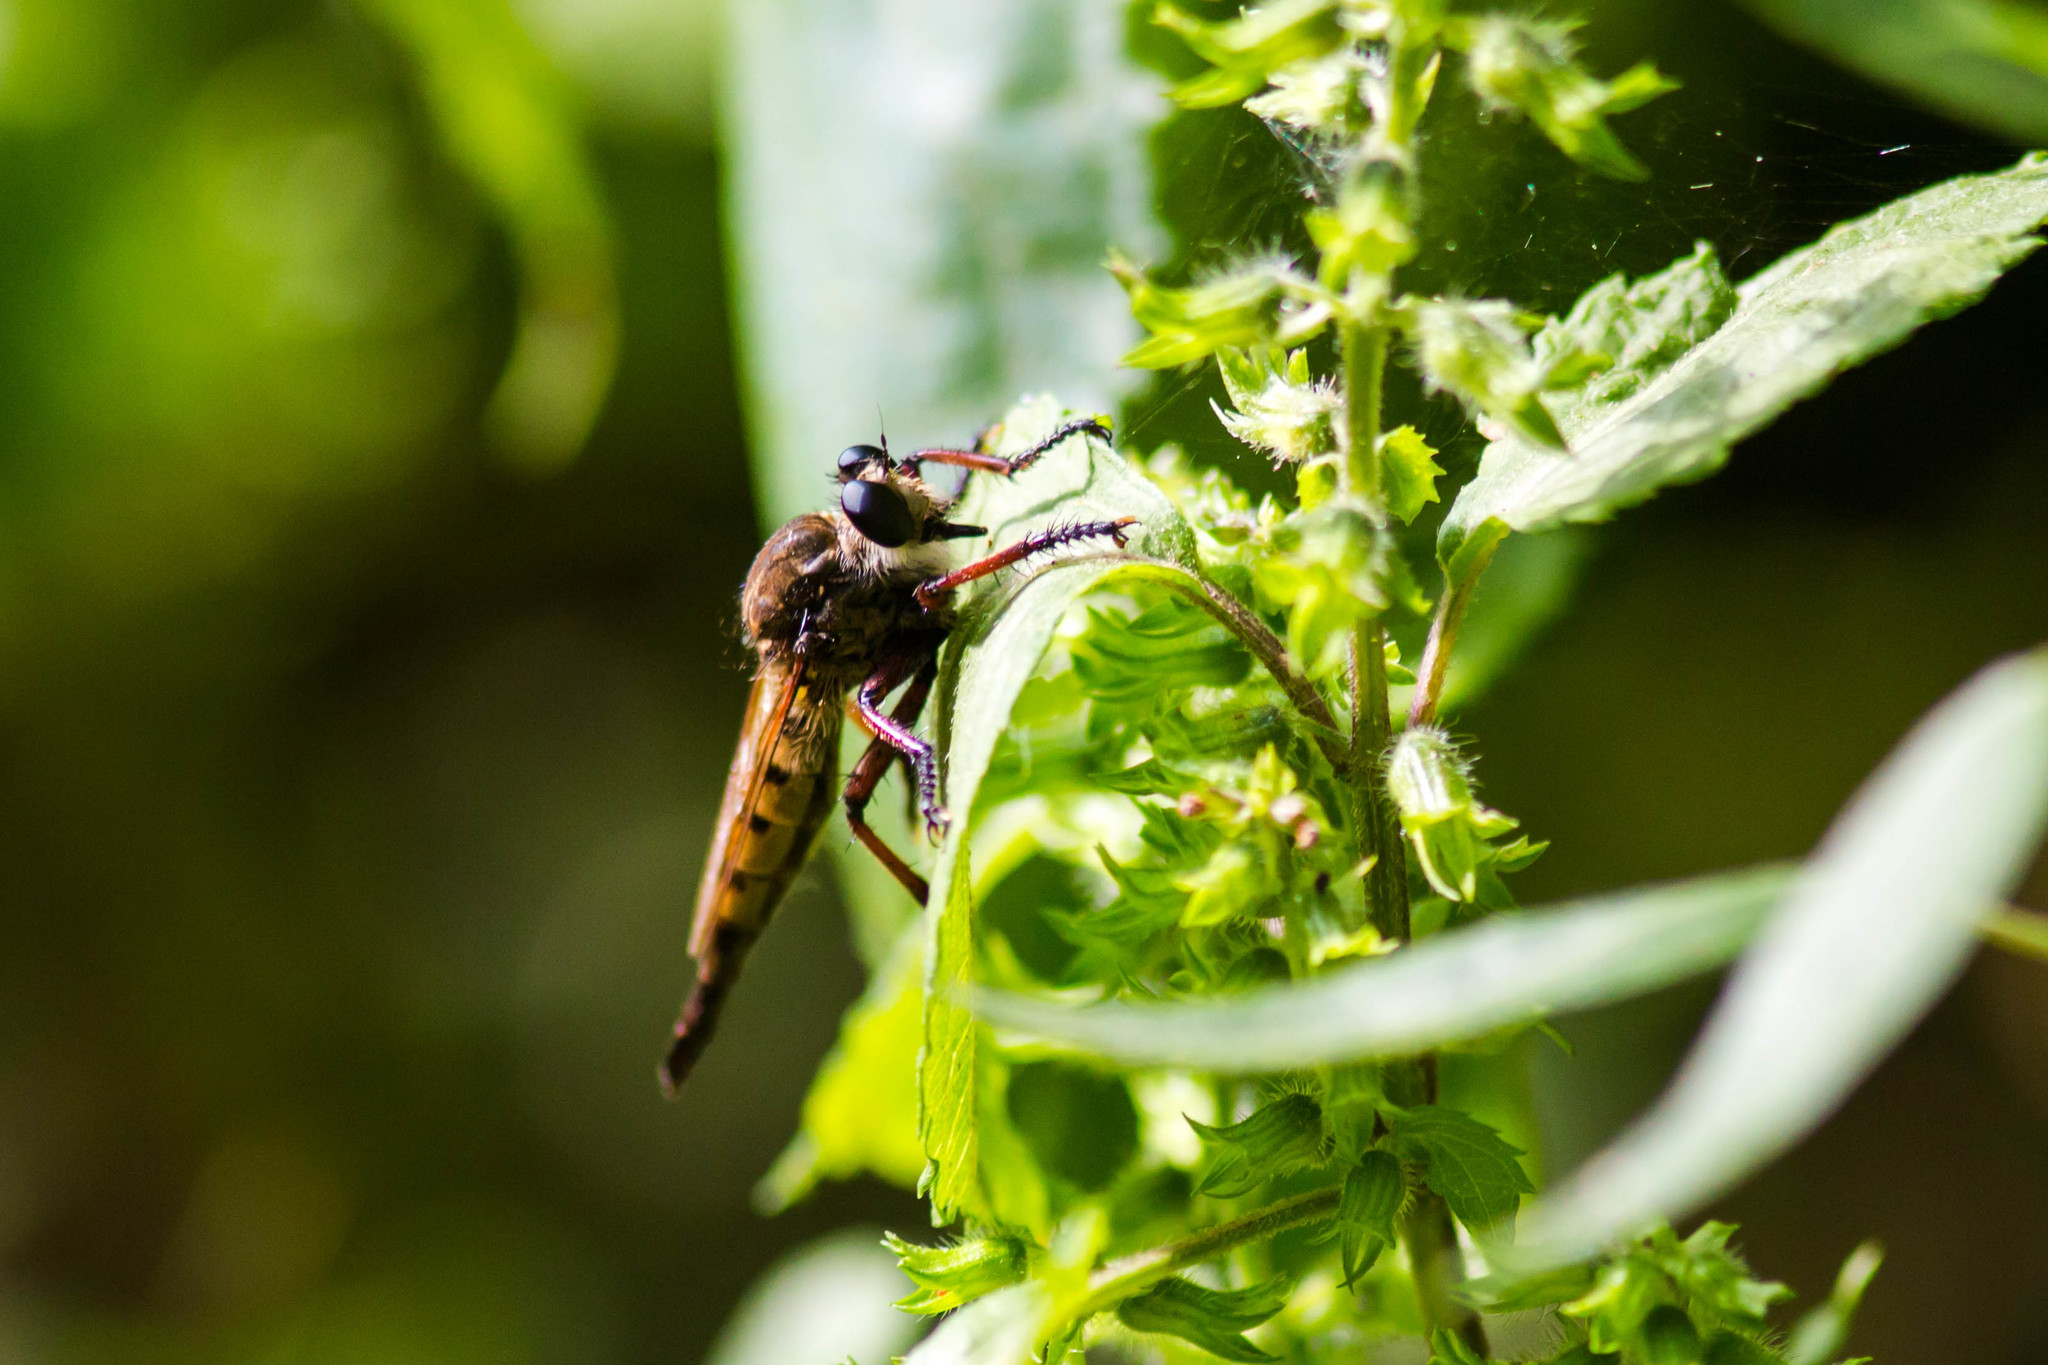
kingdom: Animalia
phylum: Arthropoda
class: Insecta
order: Diptera
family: Asilidae
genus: Promachus
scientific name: Promachus hinei
